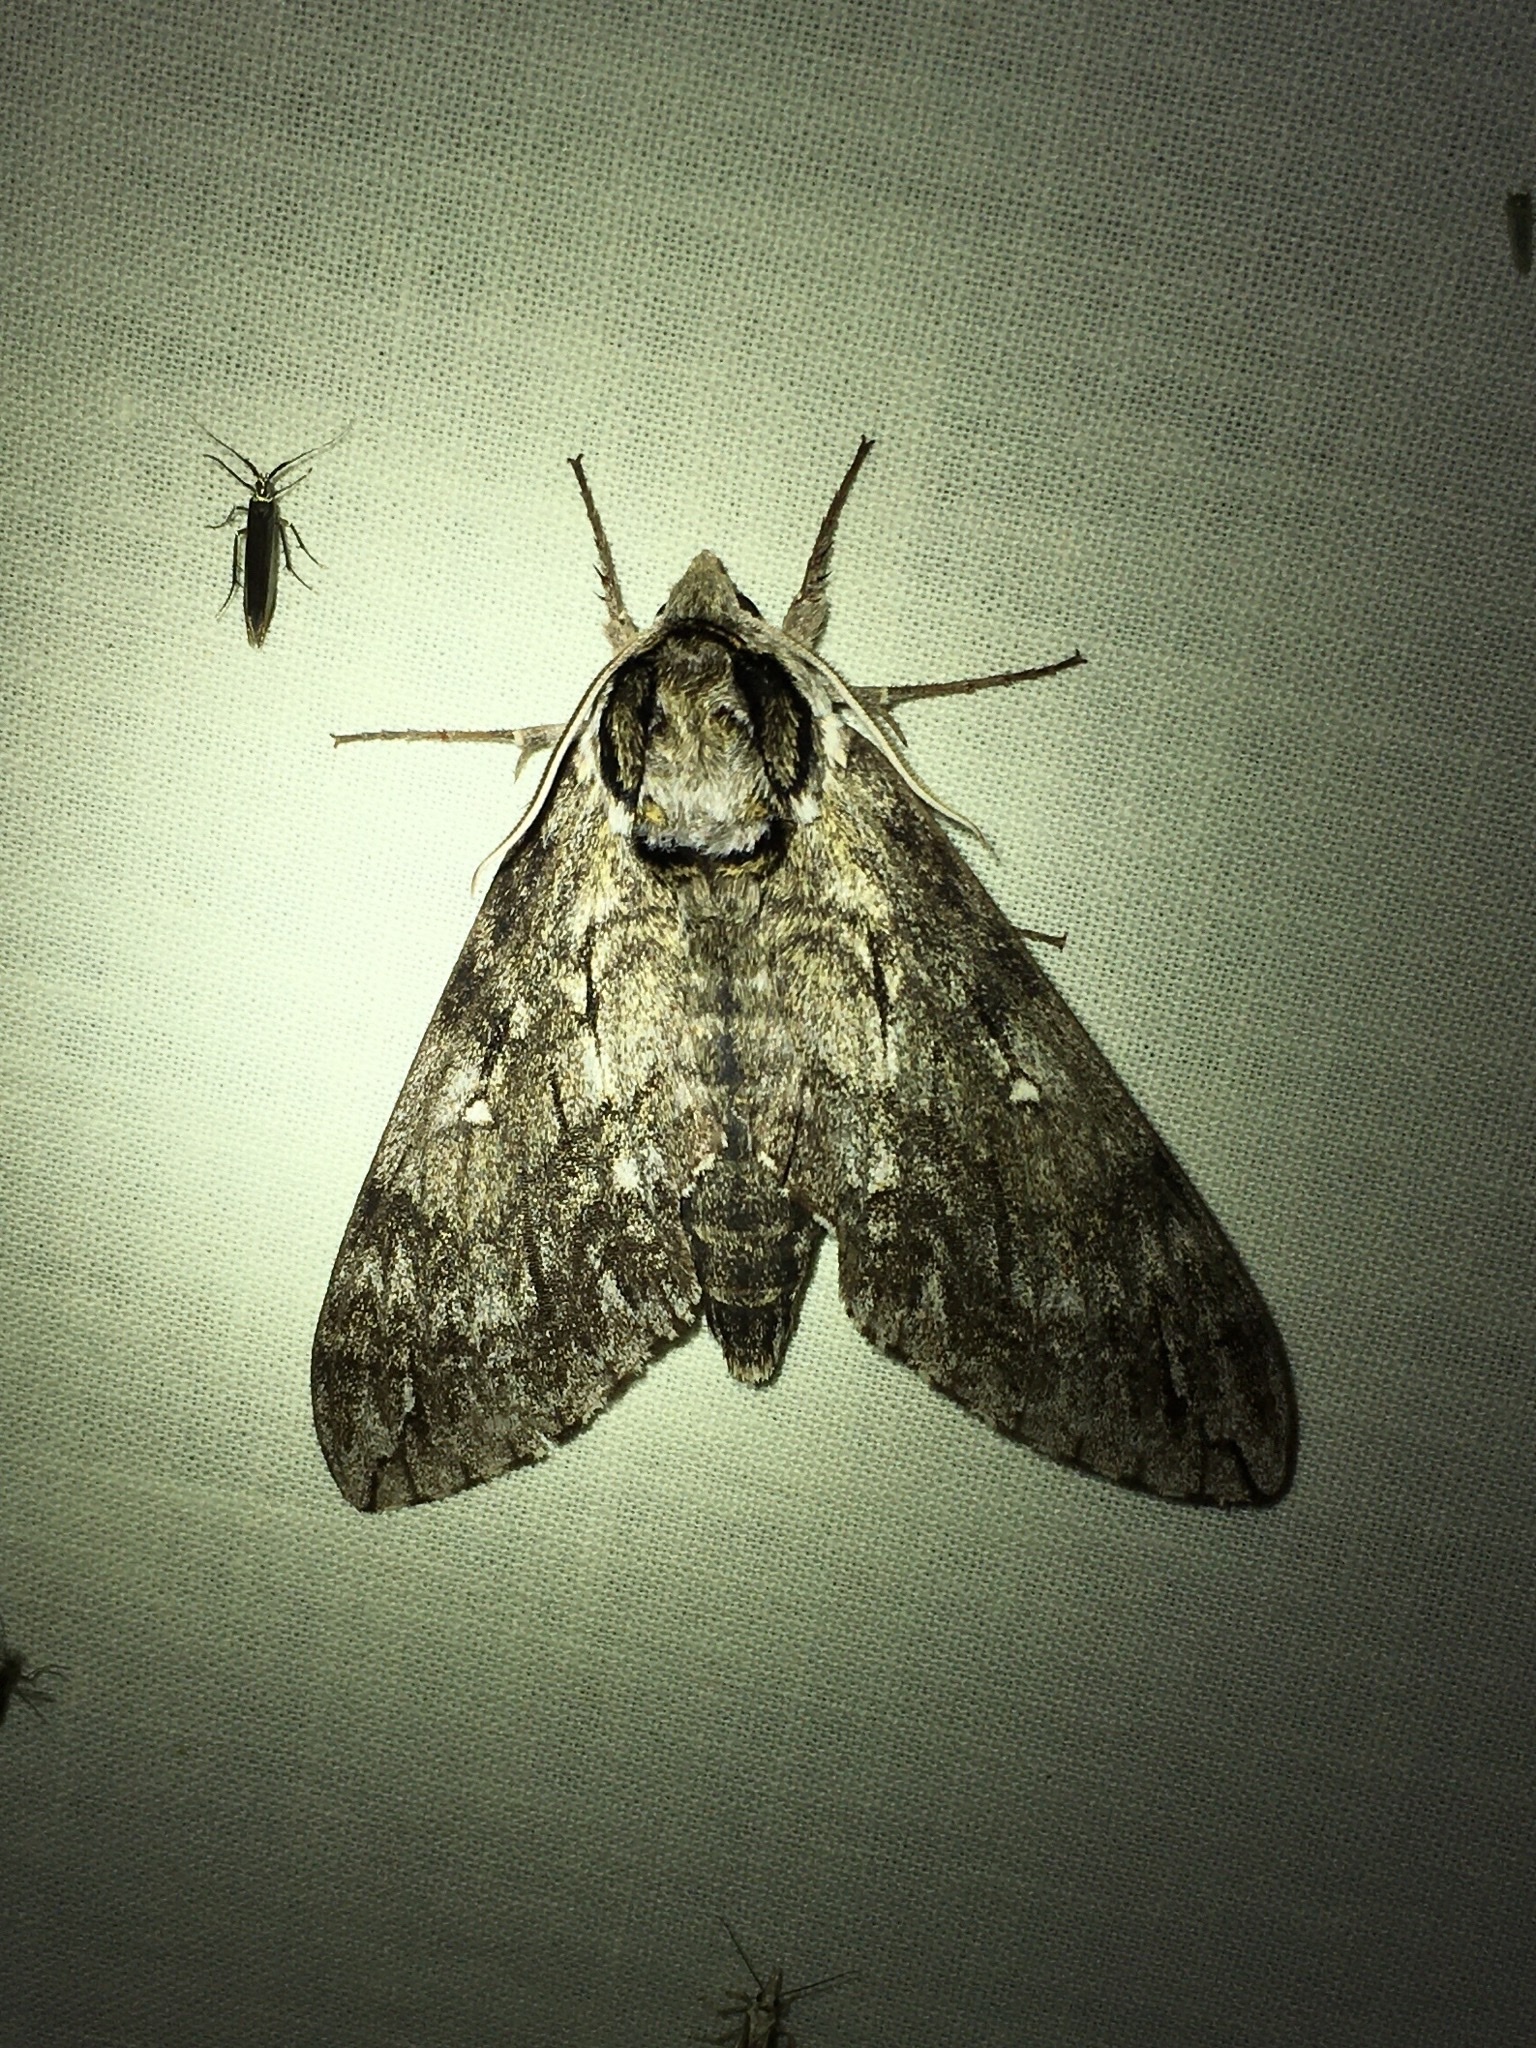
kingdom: Animalia
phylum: Arthropoda
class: Insecta
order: Lepidoptera
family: Sphingidae
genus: Ceratomia
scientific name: Ceratomia undulosa
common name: Waved sphinx
